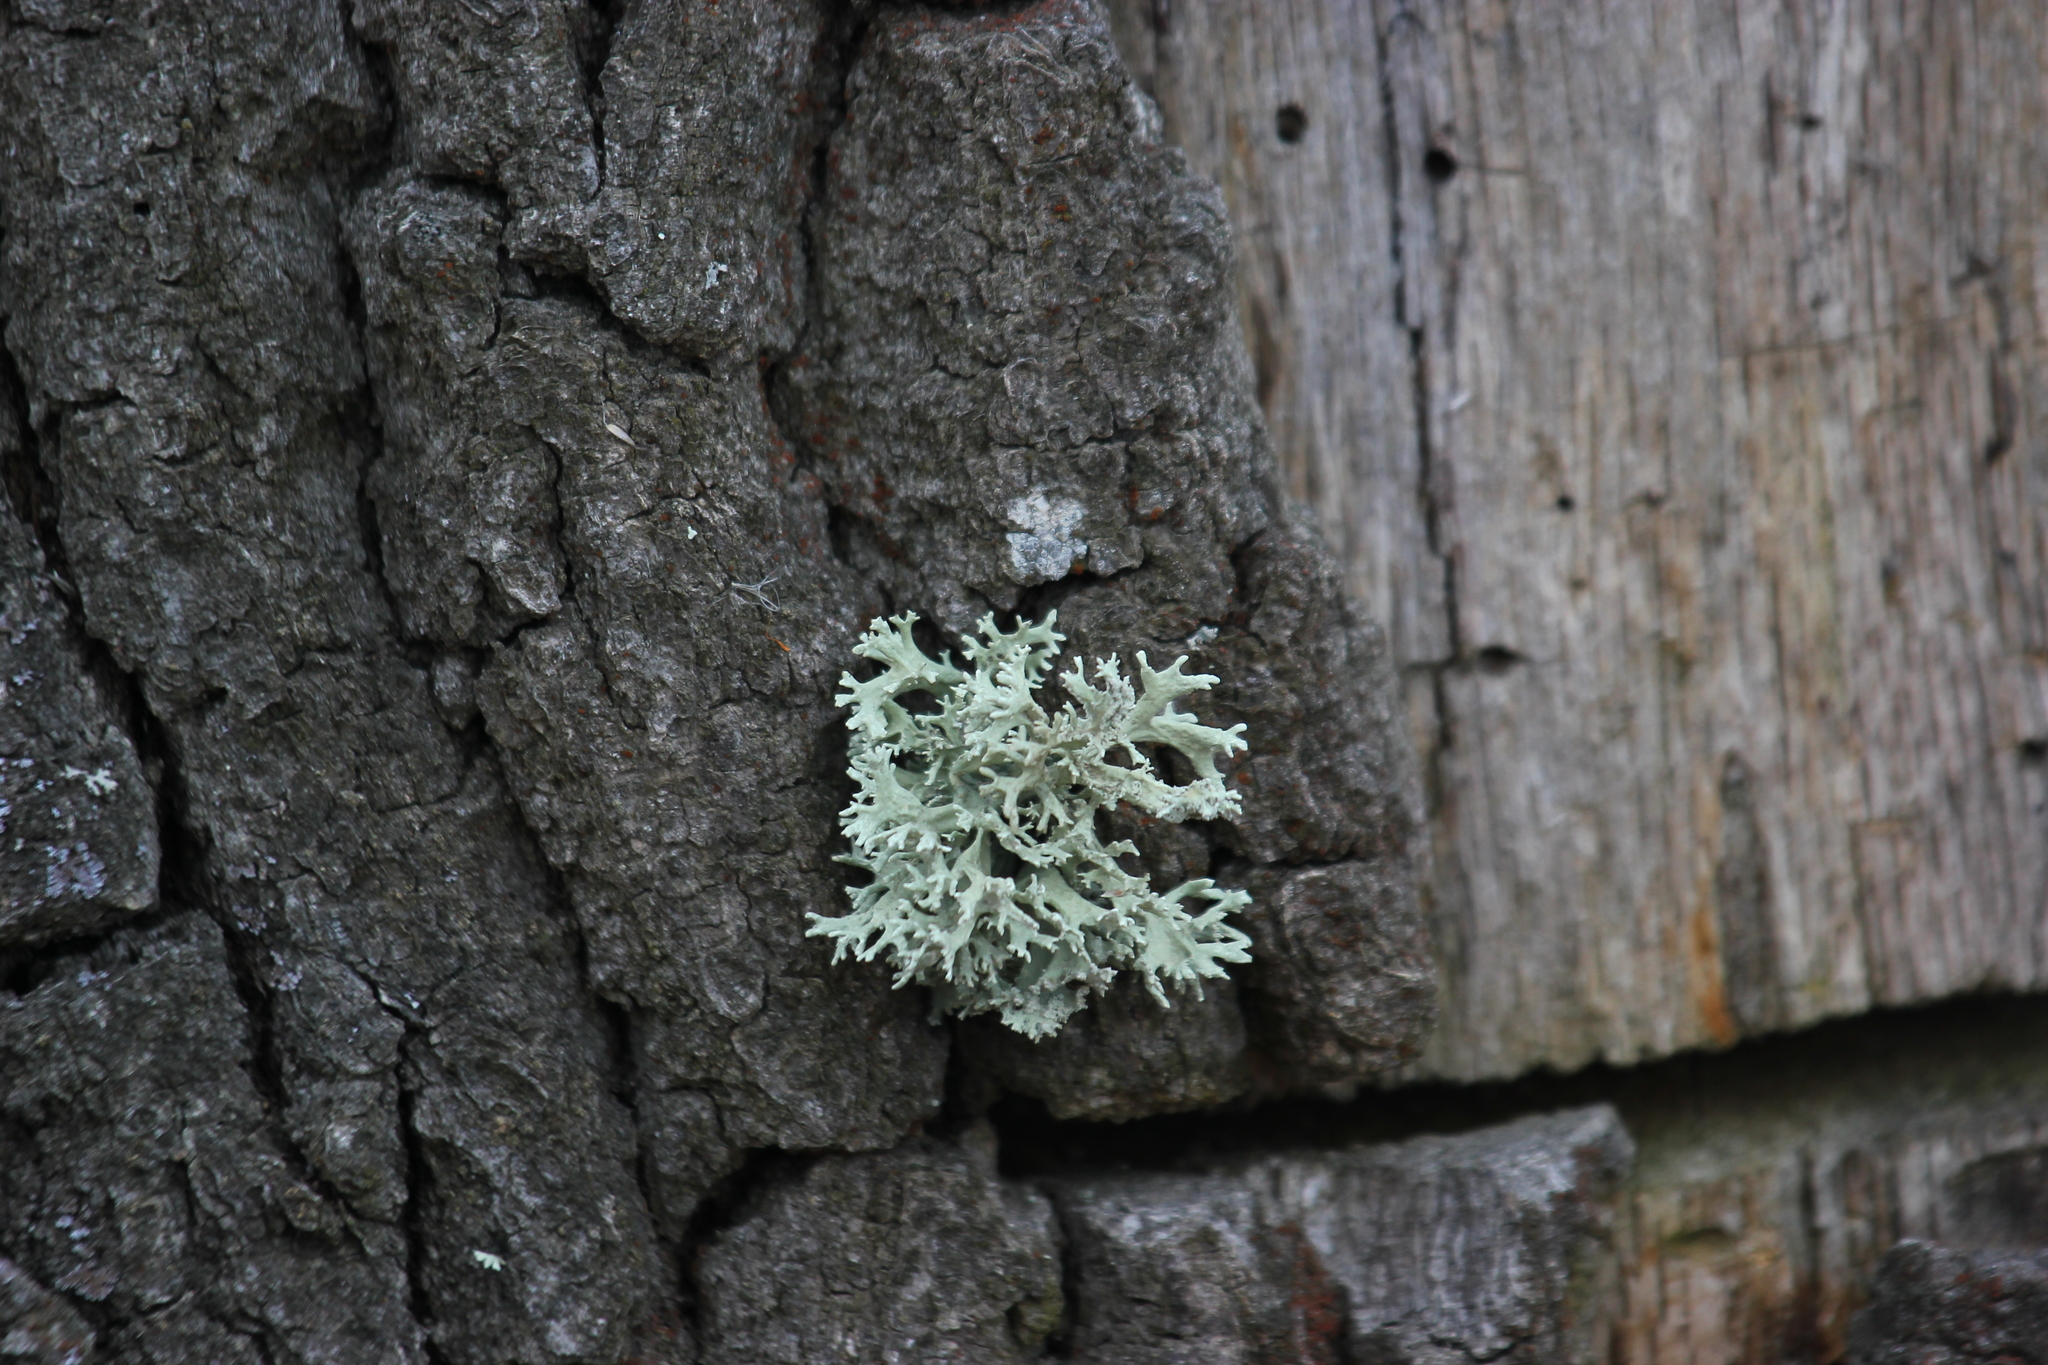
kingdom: Fungi
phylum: Ascomycota
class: Lecanoromycetes
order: Lecanorales
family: Parmeliaceae
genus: Evernia
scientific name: Evernia prunastri
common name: Oak moss
